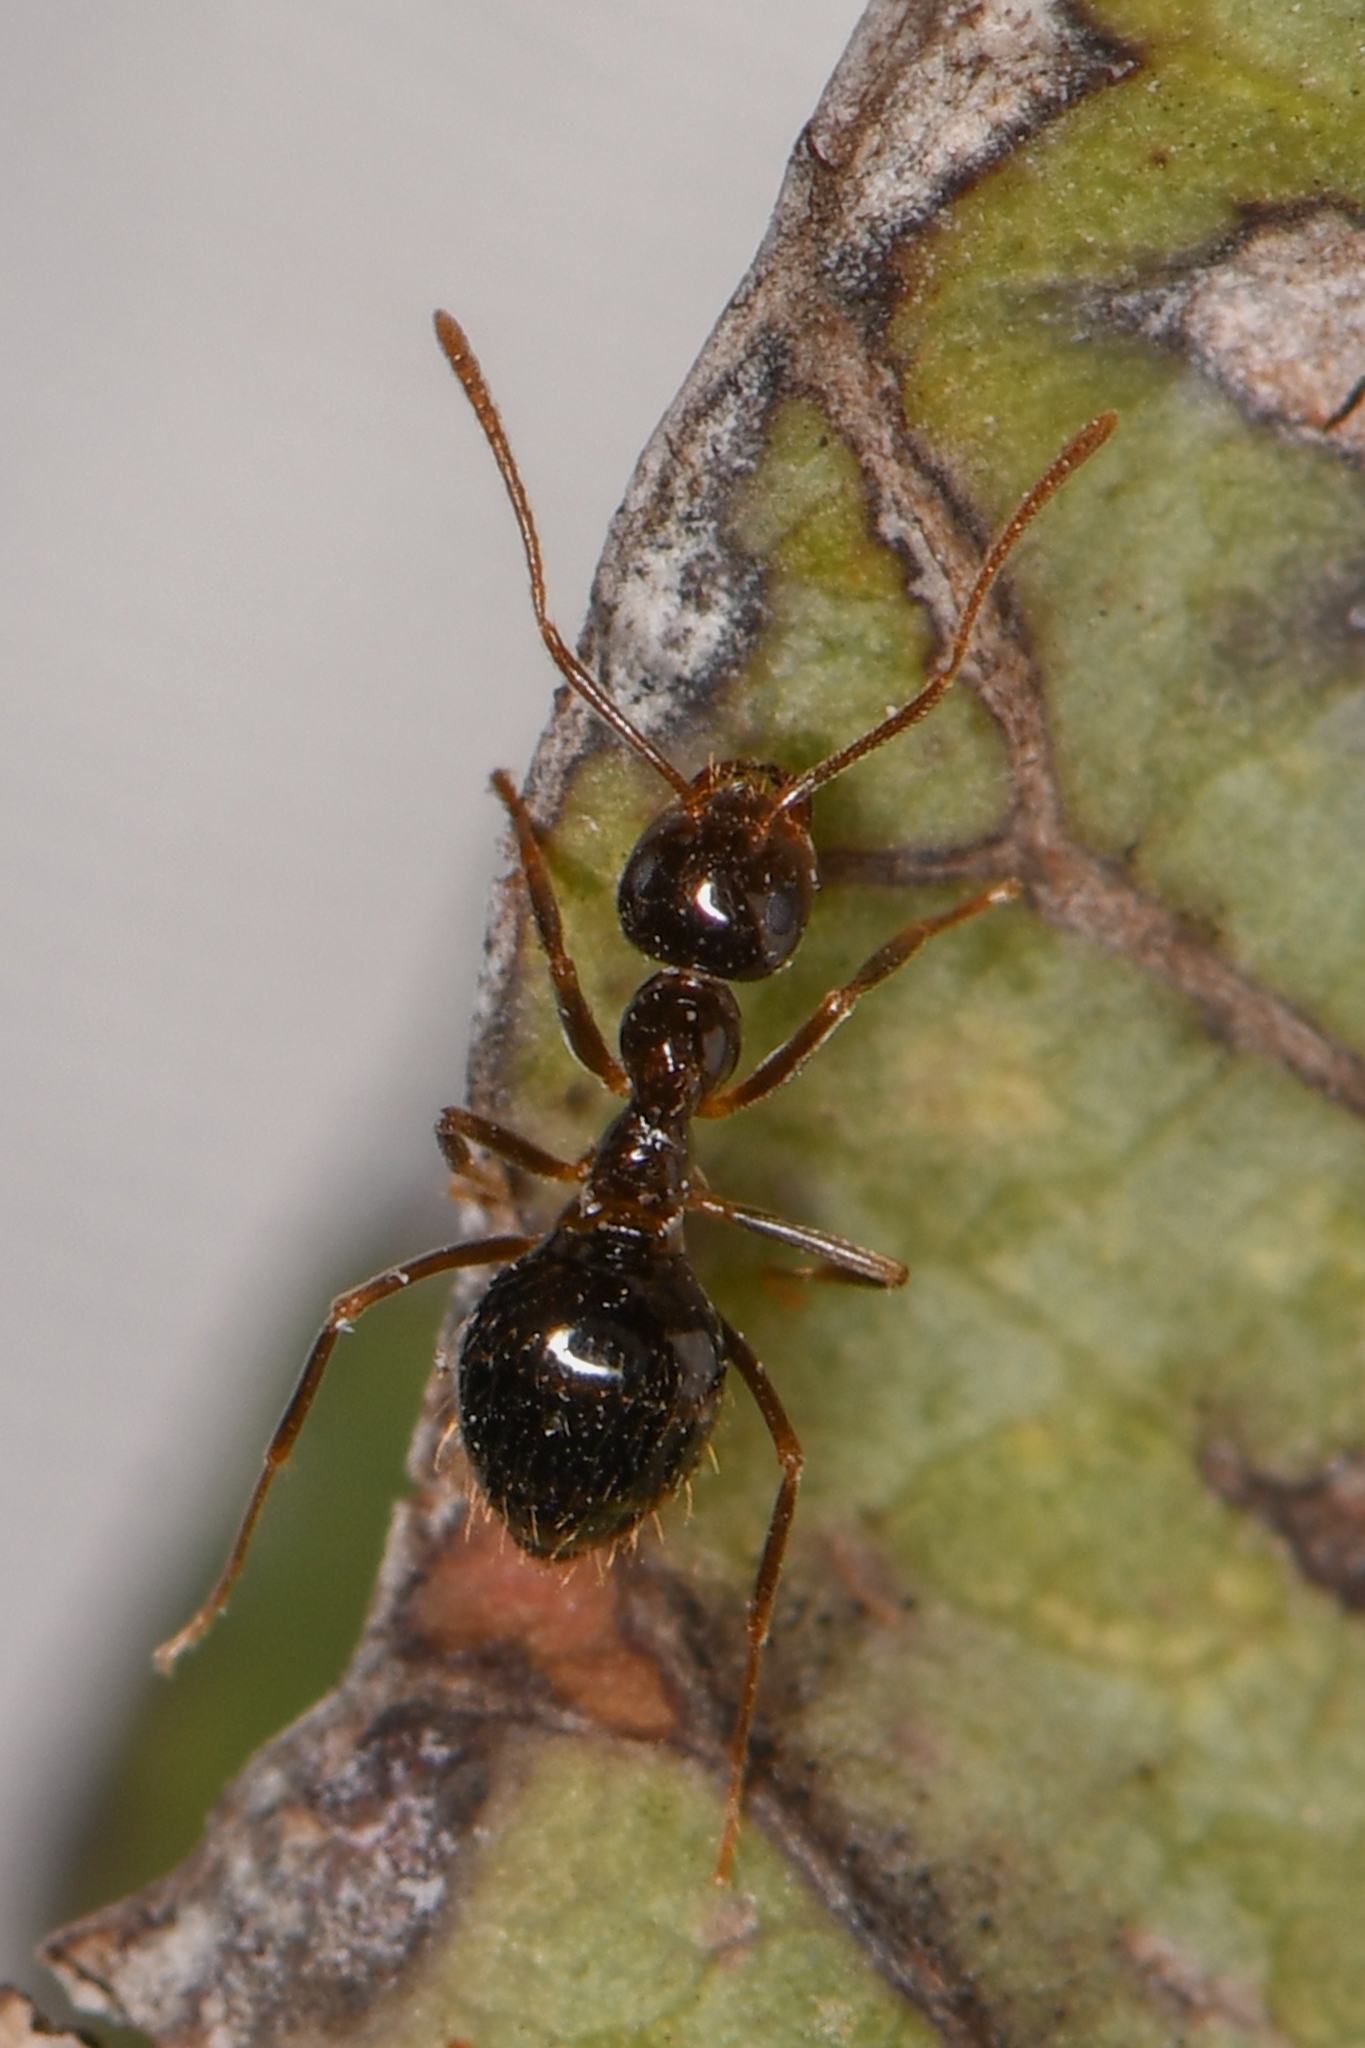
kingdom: Animalia
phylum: Arthropoda
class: Insecta
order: Hymenoptera
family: Formicidae
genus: Prenolepis
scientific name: Prenolepis imparis
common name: Small honey ant
